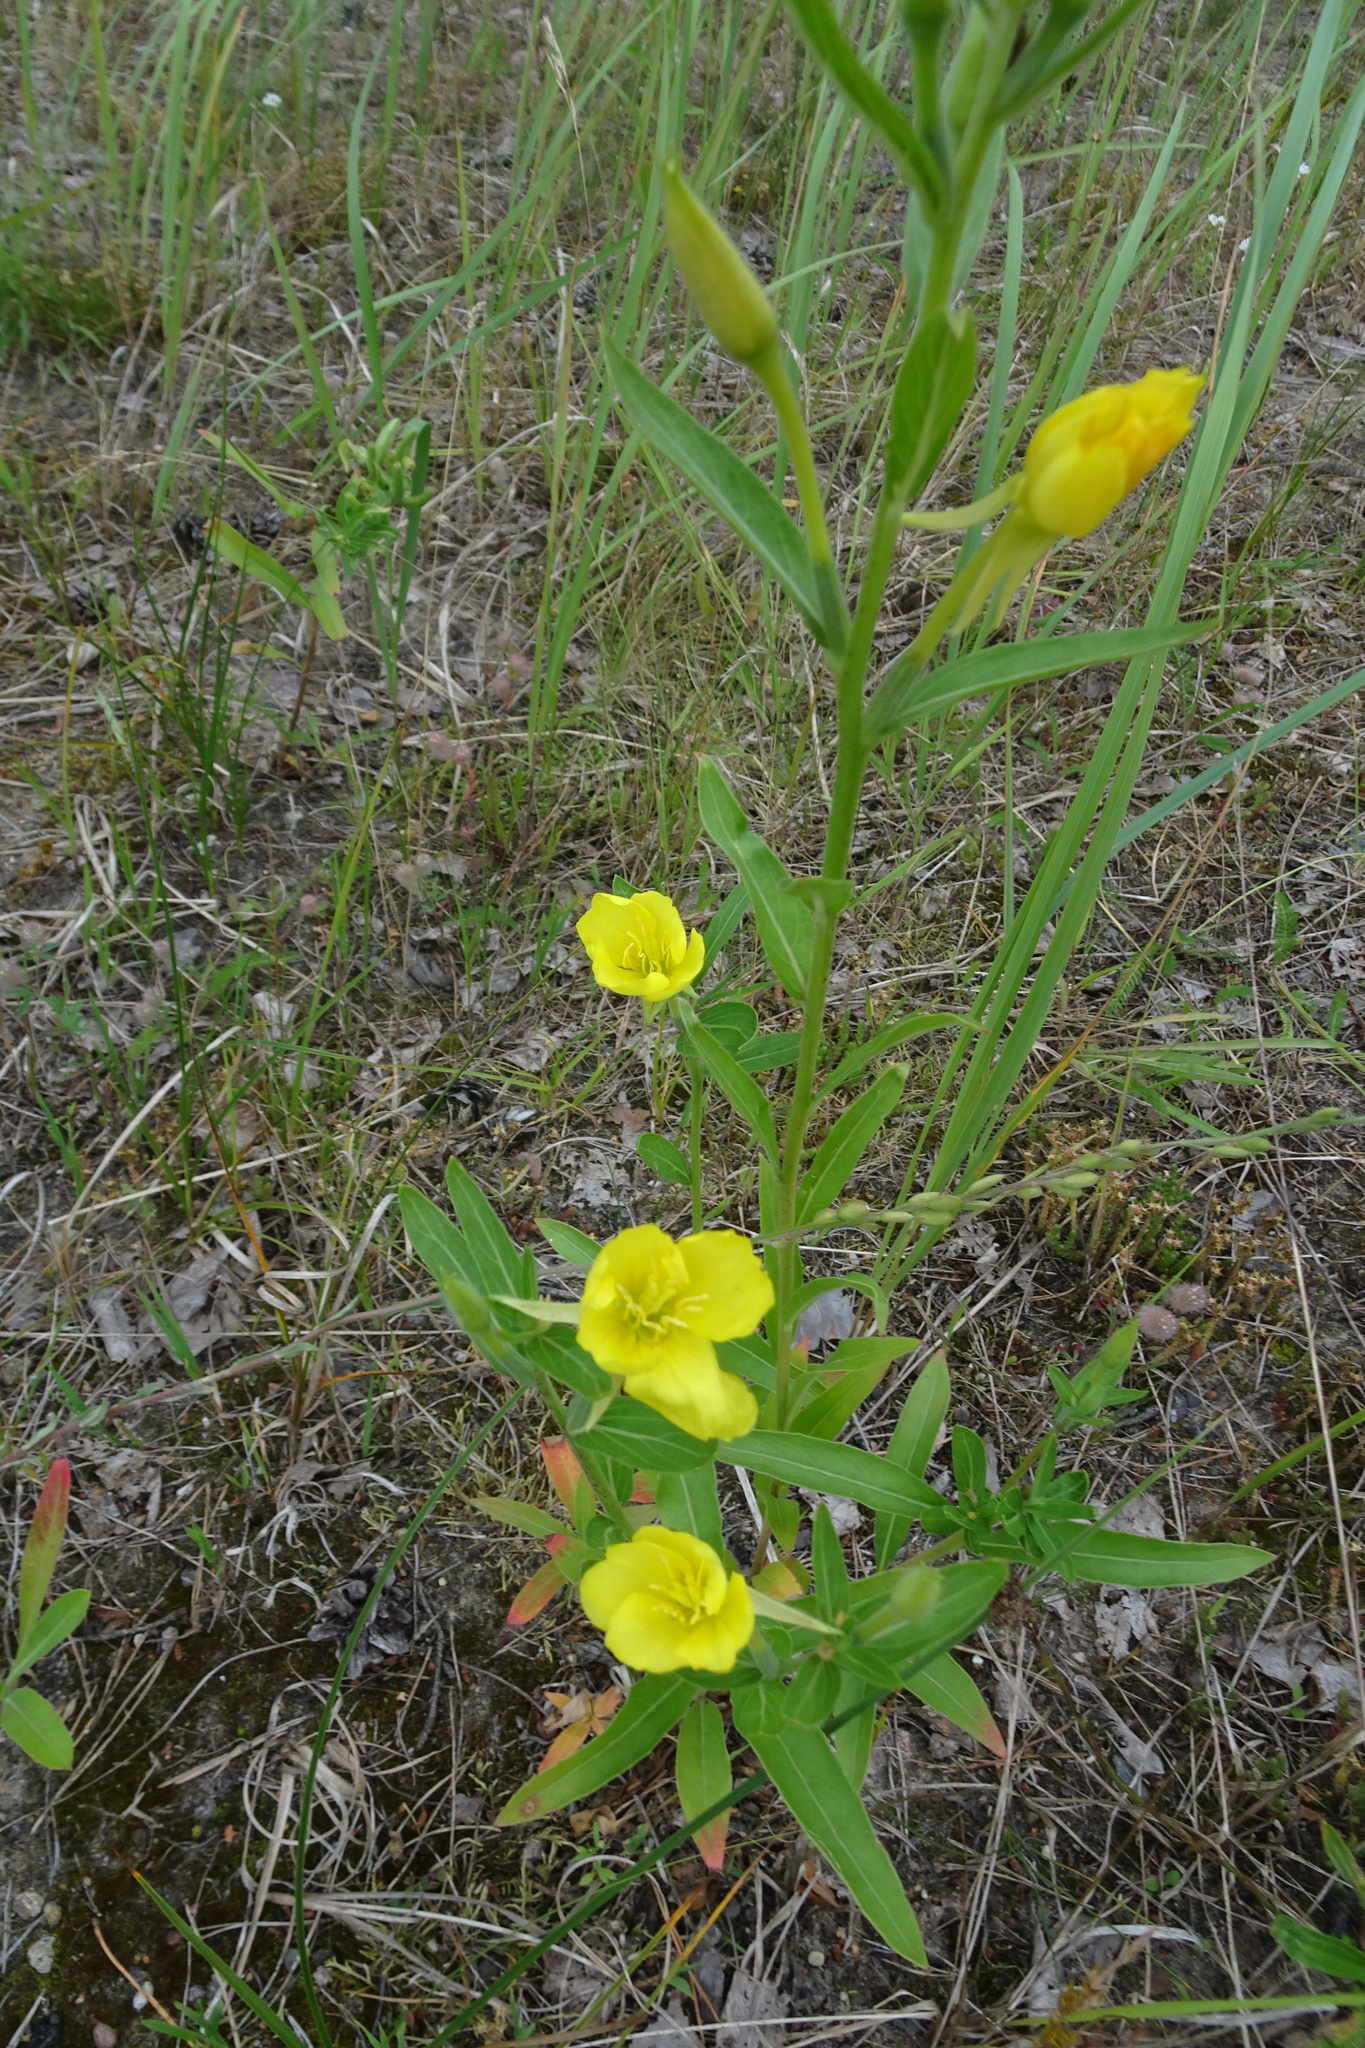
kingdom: Plantae
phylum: Tracheophyta
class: Magnoliopsida
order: Myrtales
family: Onagraceae
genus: Oenothera
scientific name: Oenothera biennis
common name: Common evening-primrose
